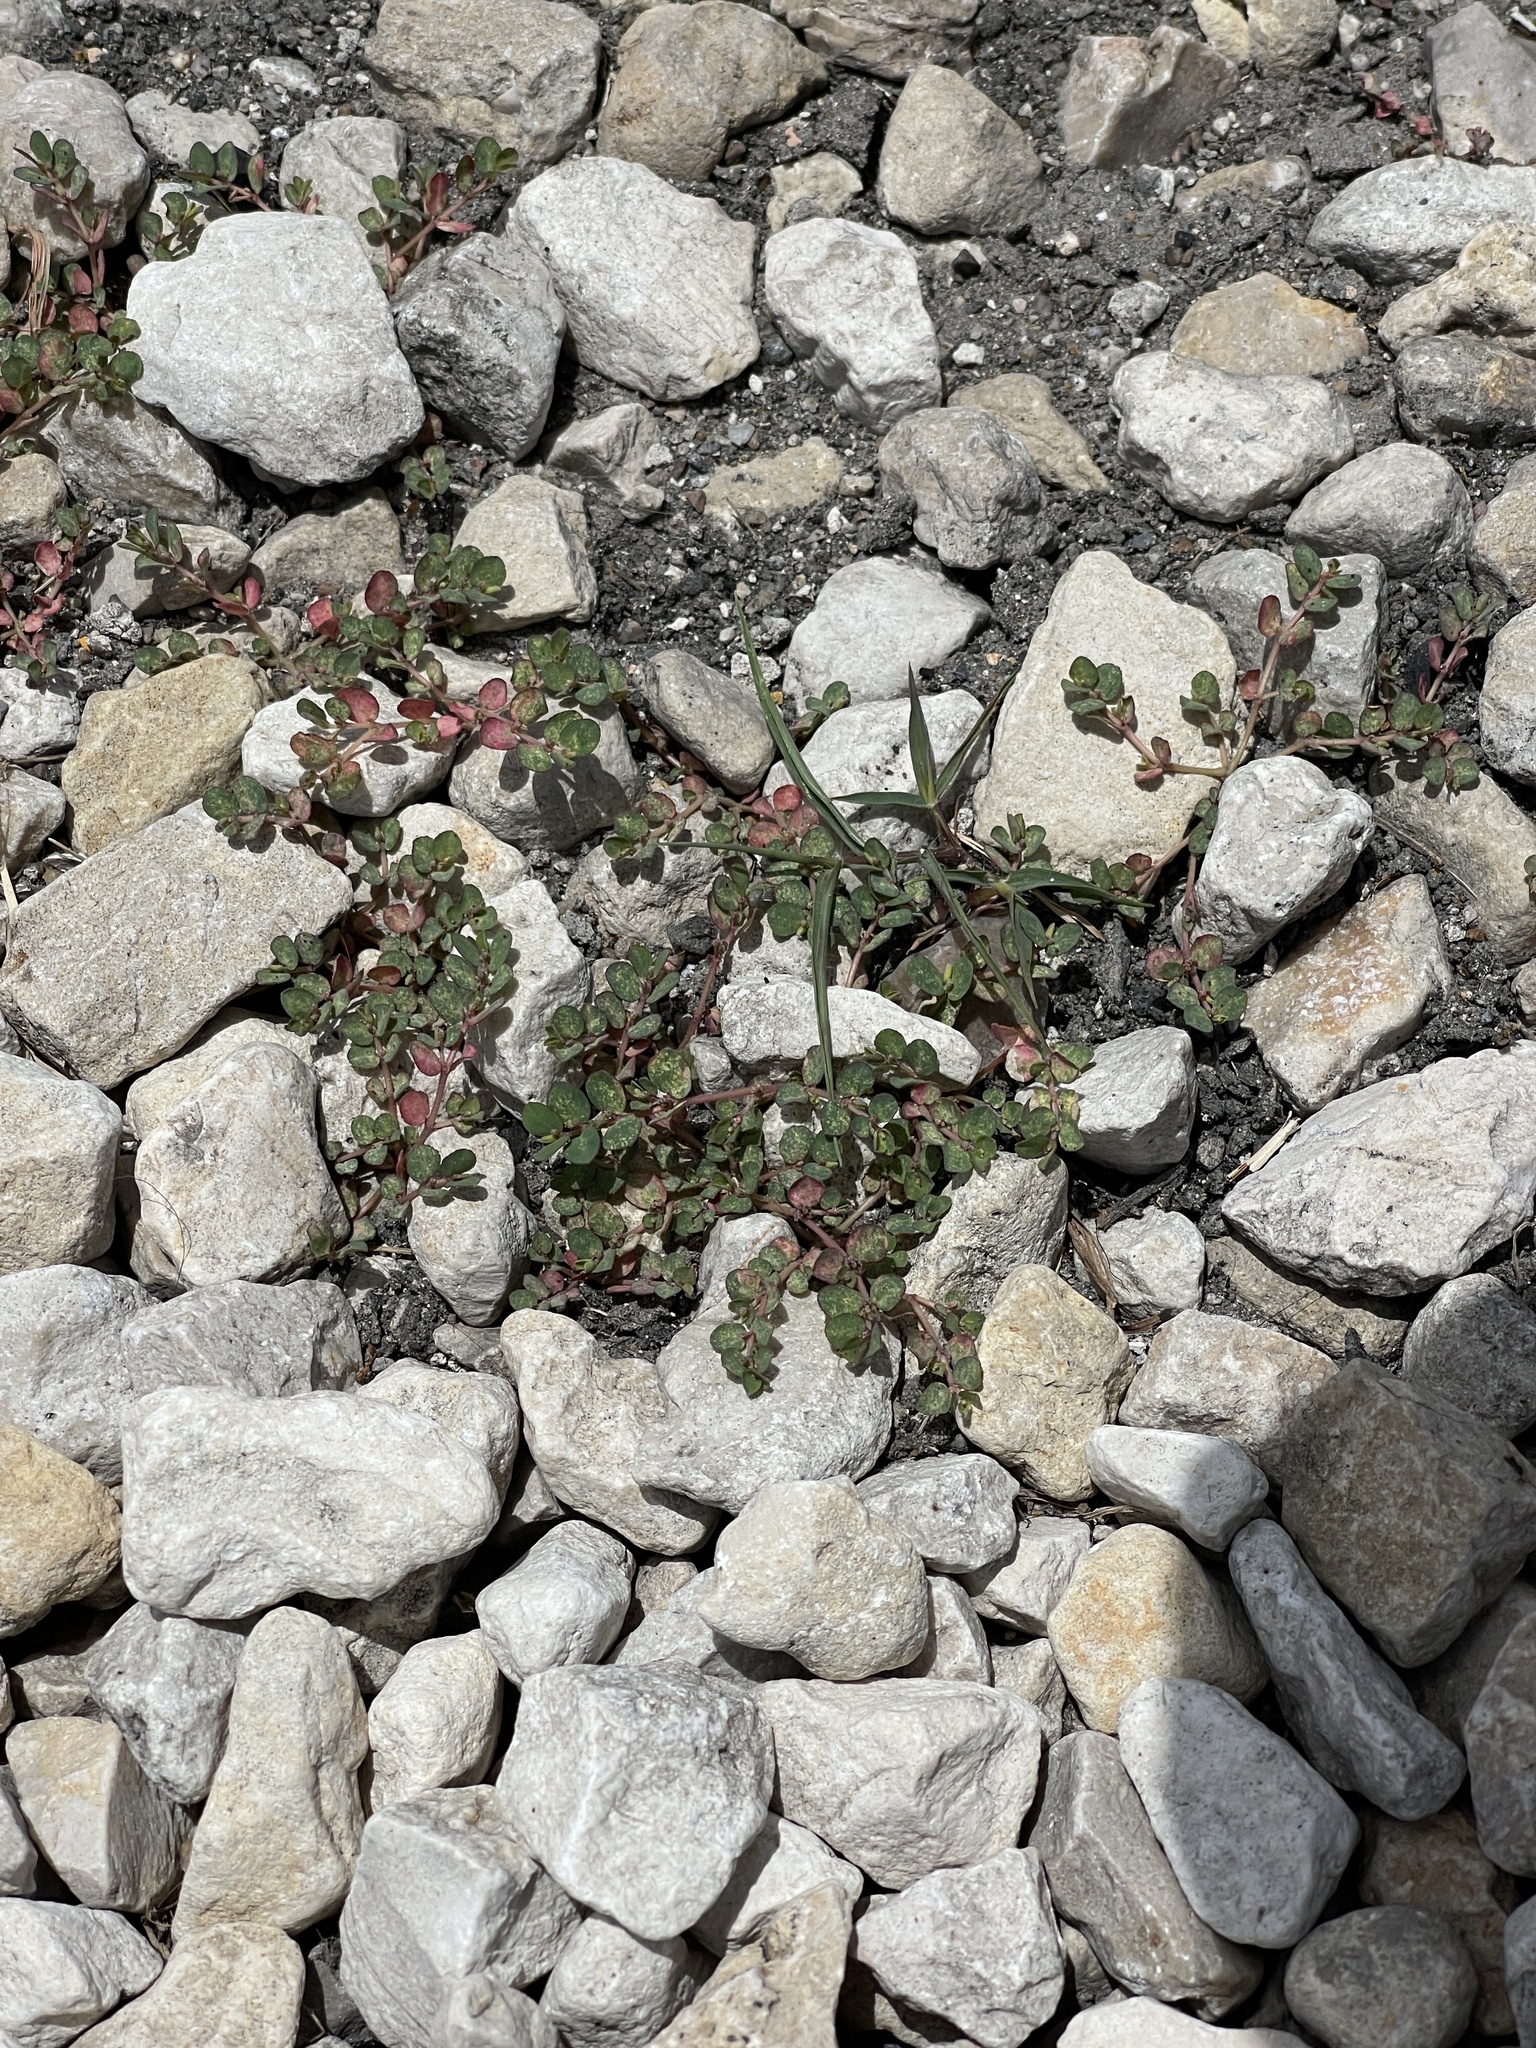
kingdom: Plantae
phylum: Tracheophyta
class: Magnoliopsida
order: Malpighiales
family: Euphorbiaceae
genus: Euphorbia
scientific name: Euphorbia prostrata
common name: Prostrate sandmat
